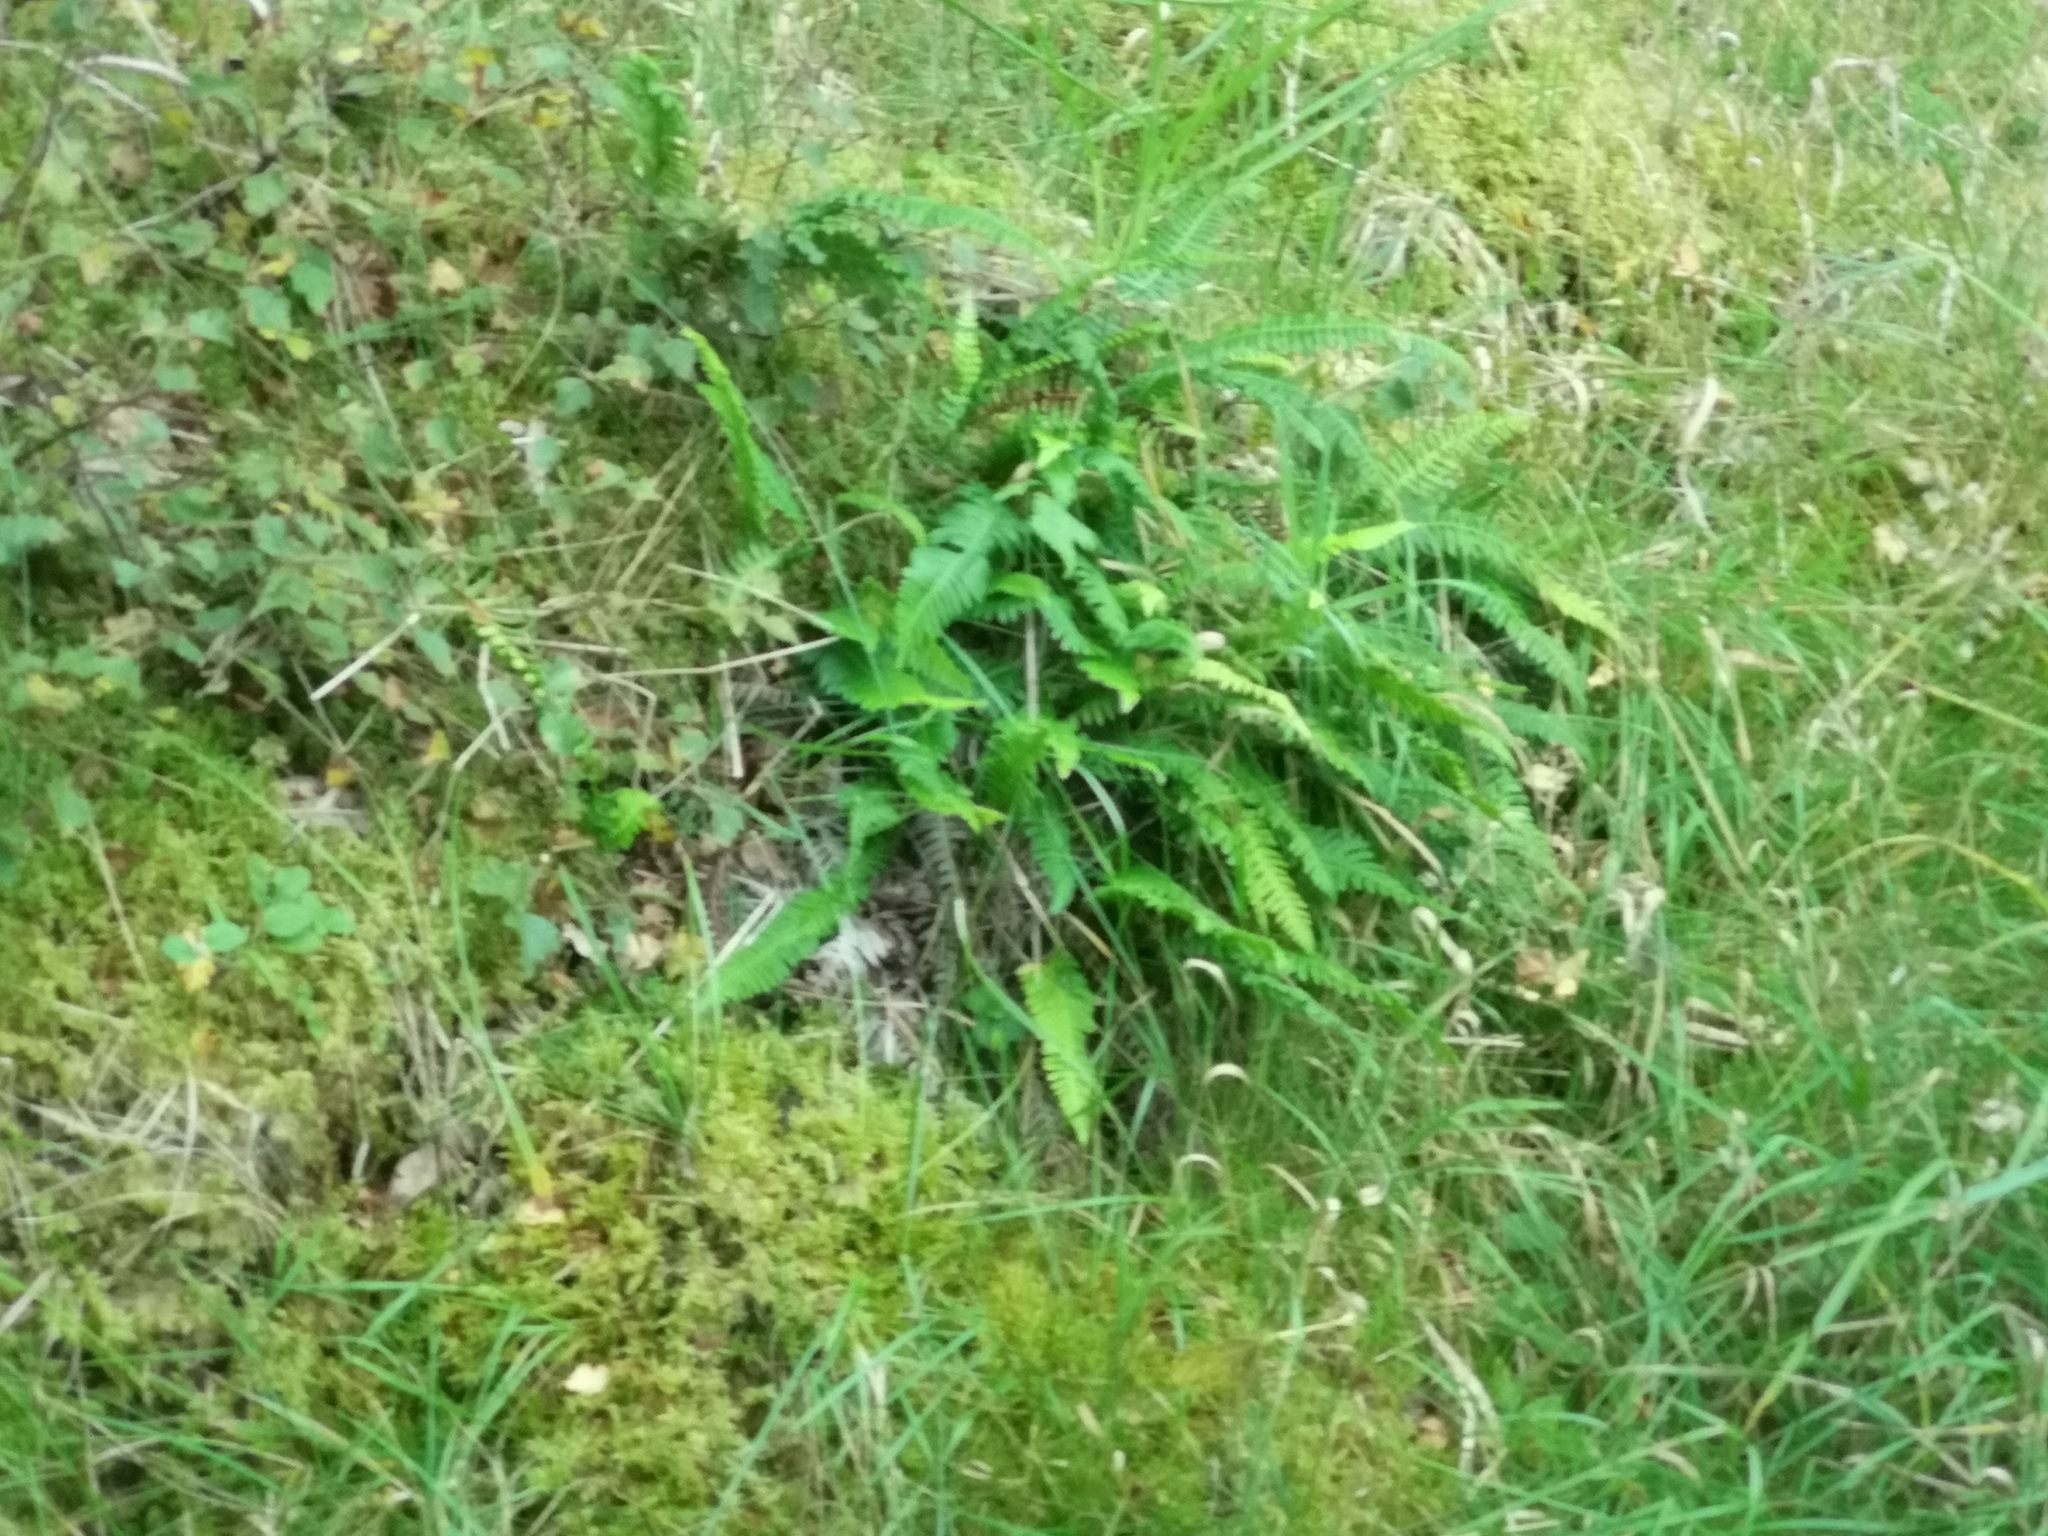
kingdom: Plantae
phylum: Tracheophyta
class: Polypodiopsida
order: Polypodiales
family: Blechnaceae
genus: Struthiopteris
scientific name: Struthiopteris spicant
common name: Deer fern
